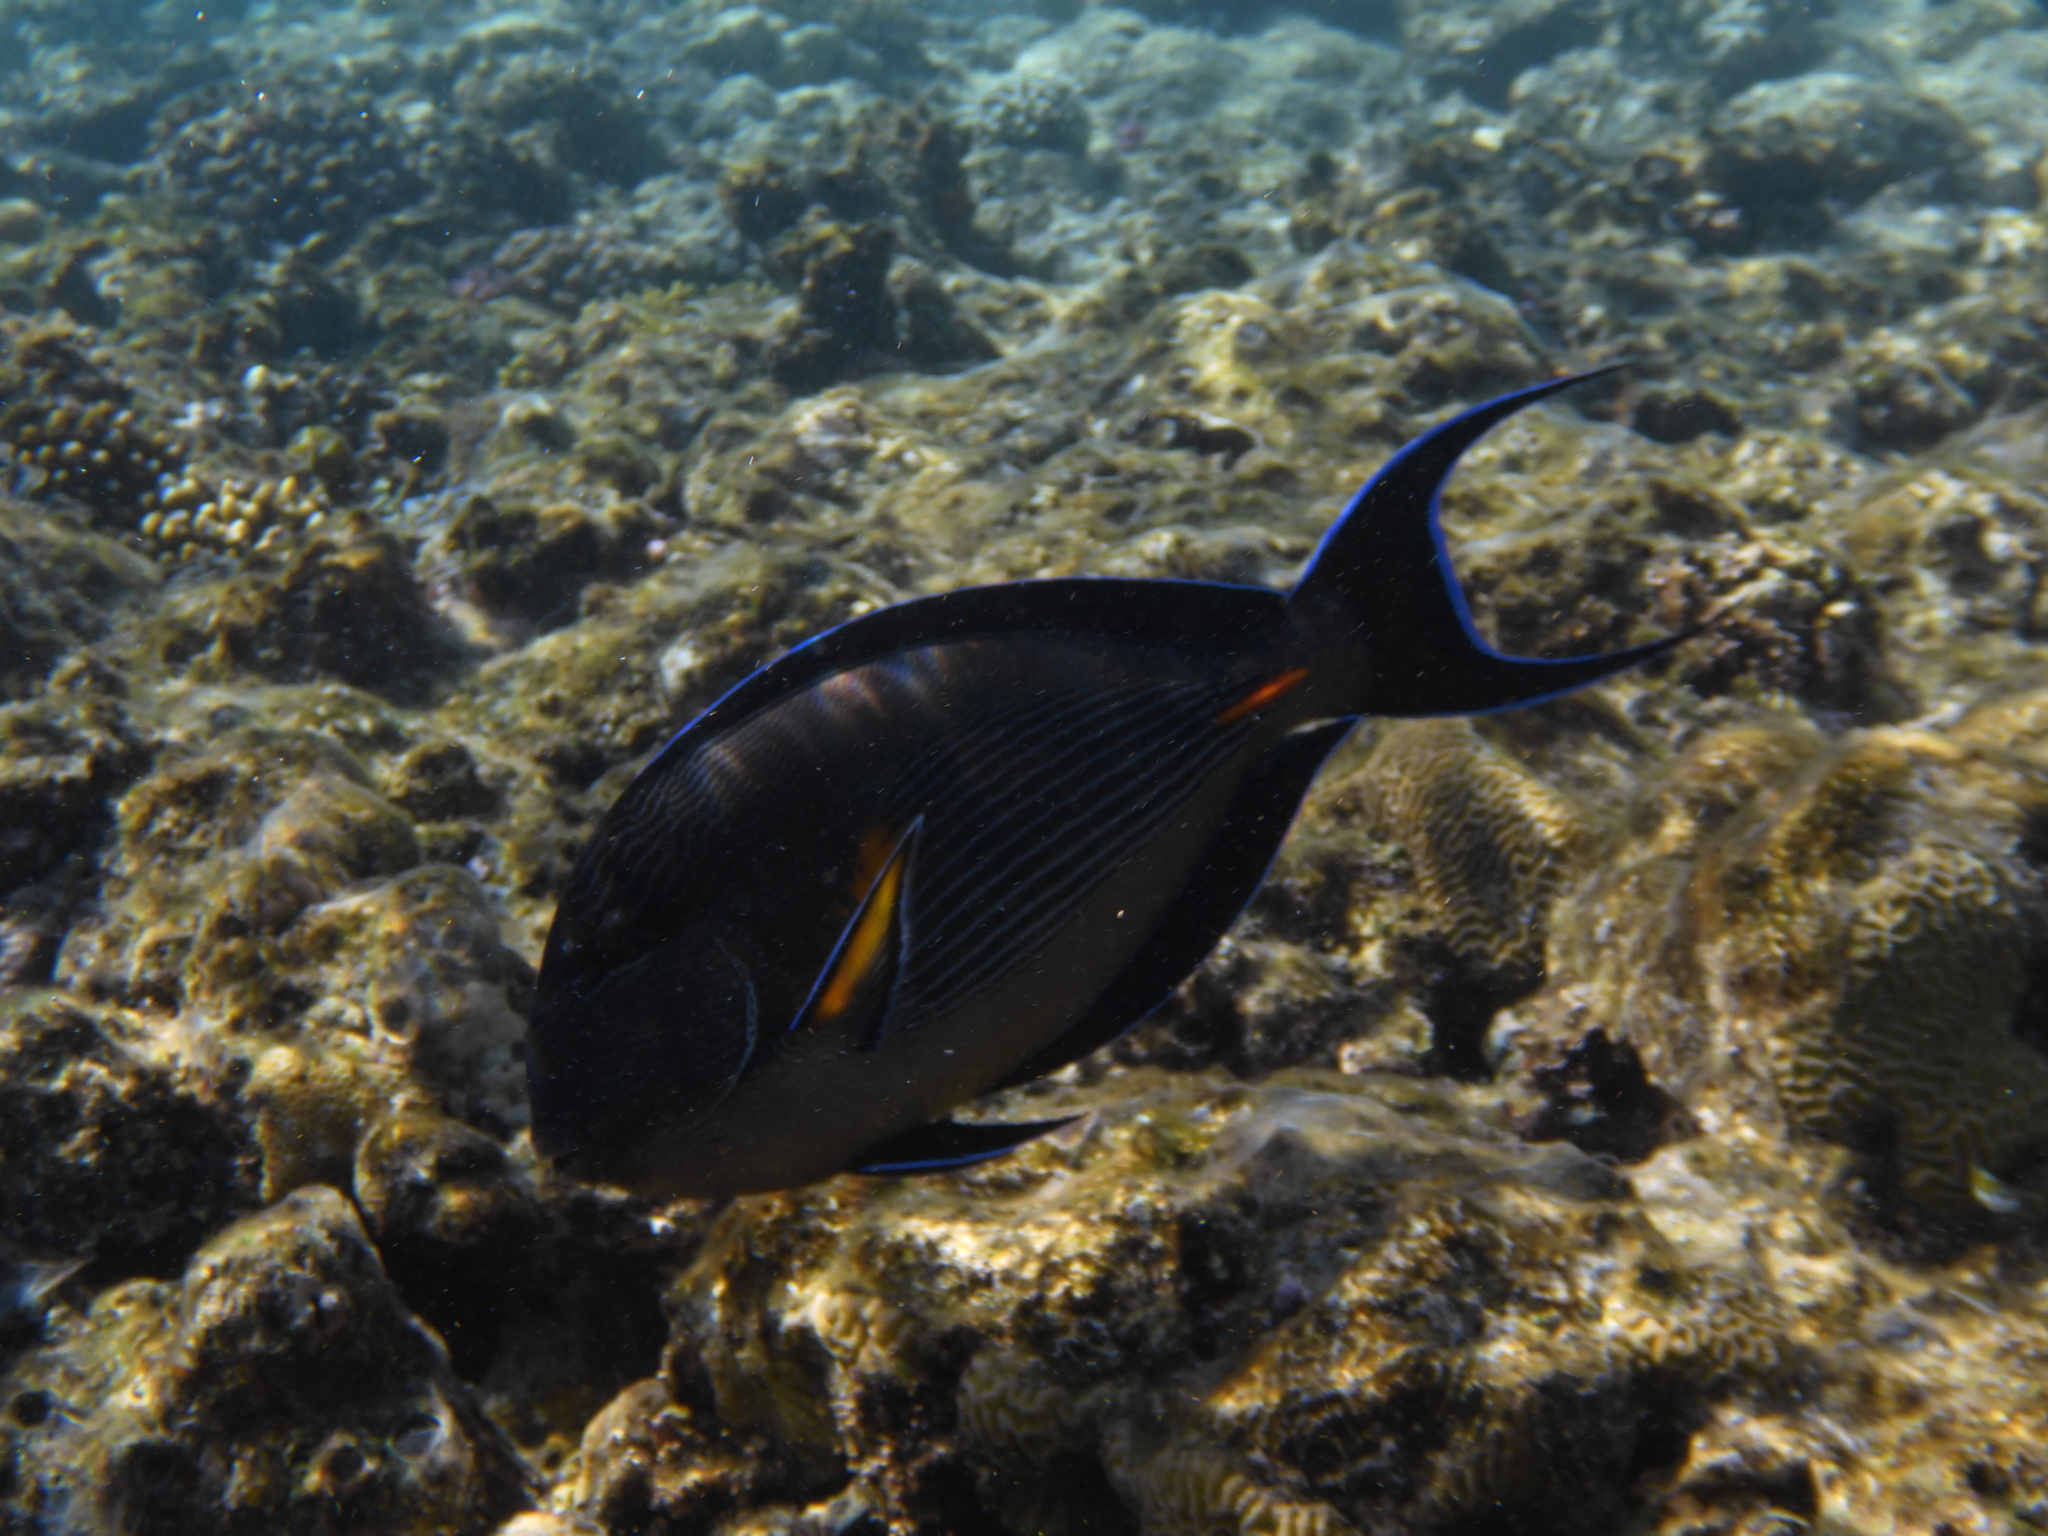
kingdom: Animalia
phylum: Chordata
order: Perciformes
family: Acanthuridae
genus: Acanthurus
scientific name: Acanthurus sohal
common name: Red sea surgeonfish
